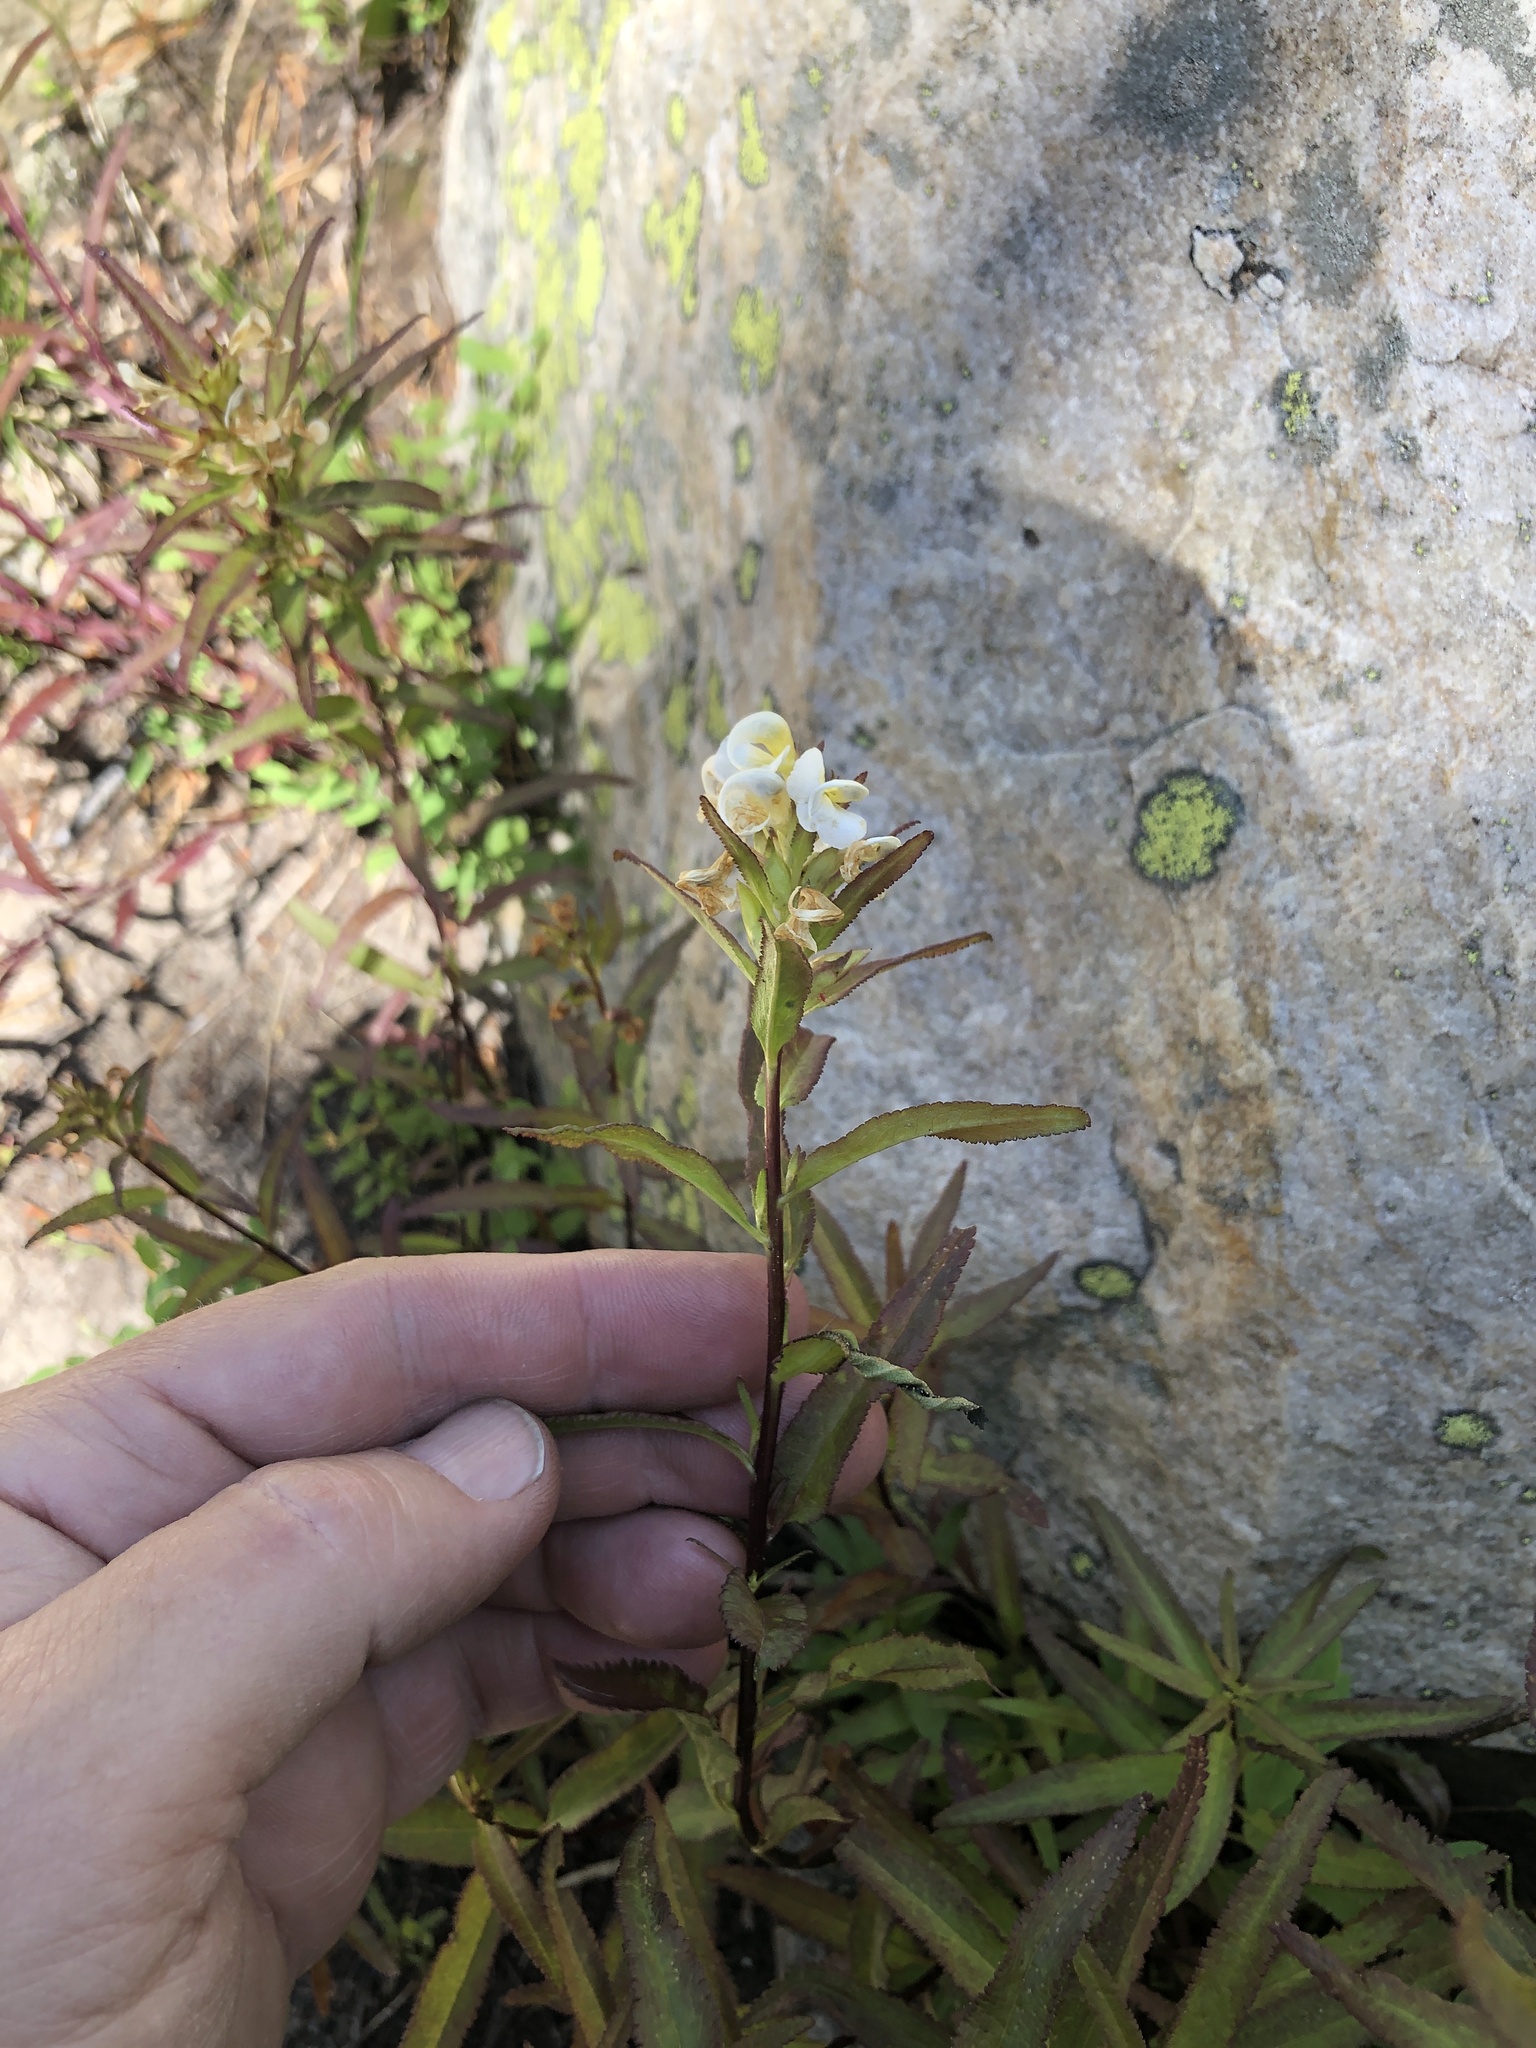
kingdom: Plantae
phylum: Tracheophyta
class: Magnoliopsida
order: Lamiales
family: Orobanchaceae
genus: Pedicularis
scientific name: Pedicularis racemosa
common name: Leafy lousewort
